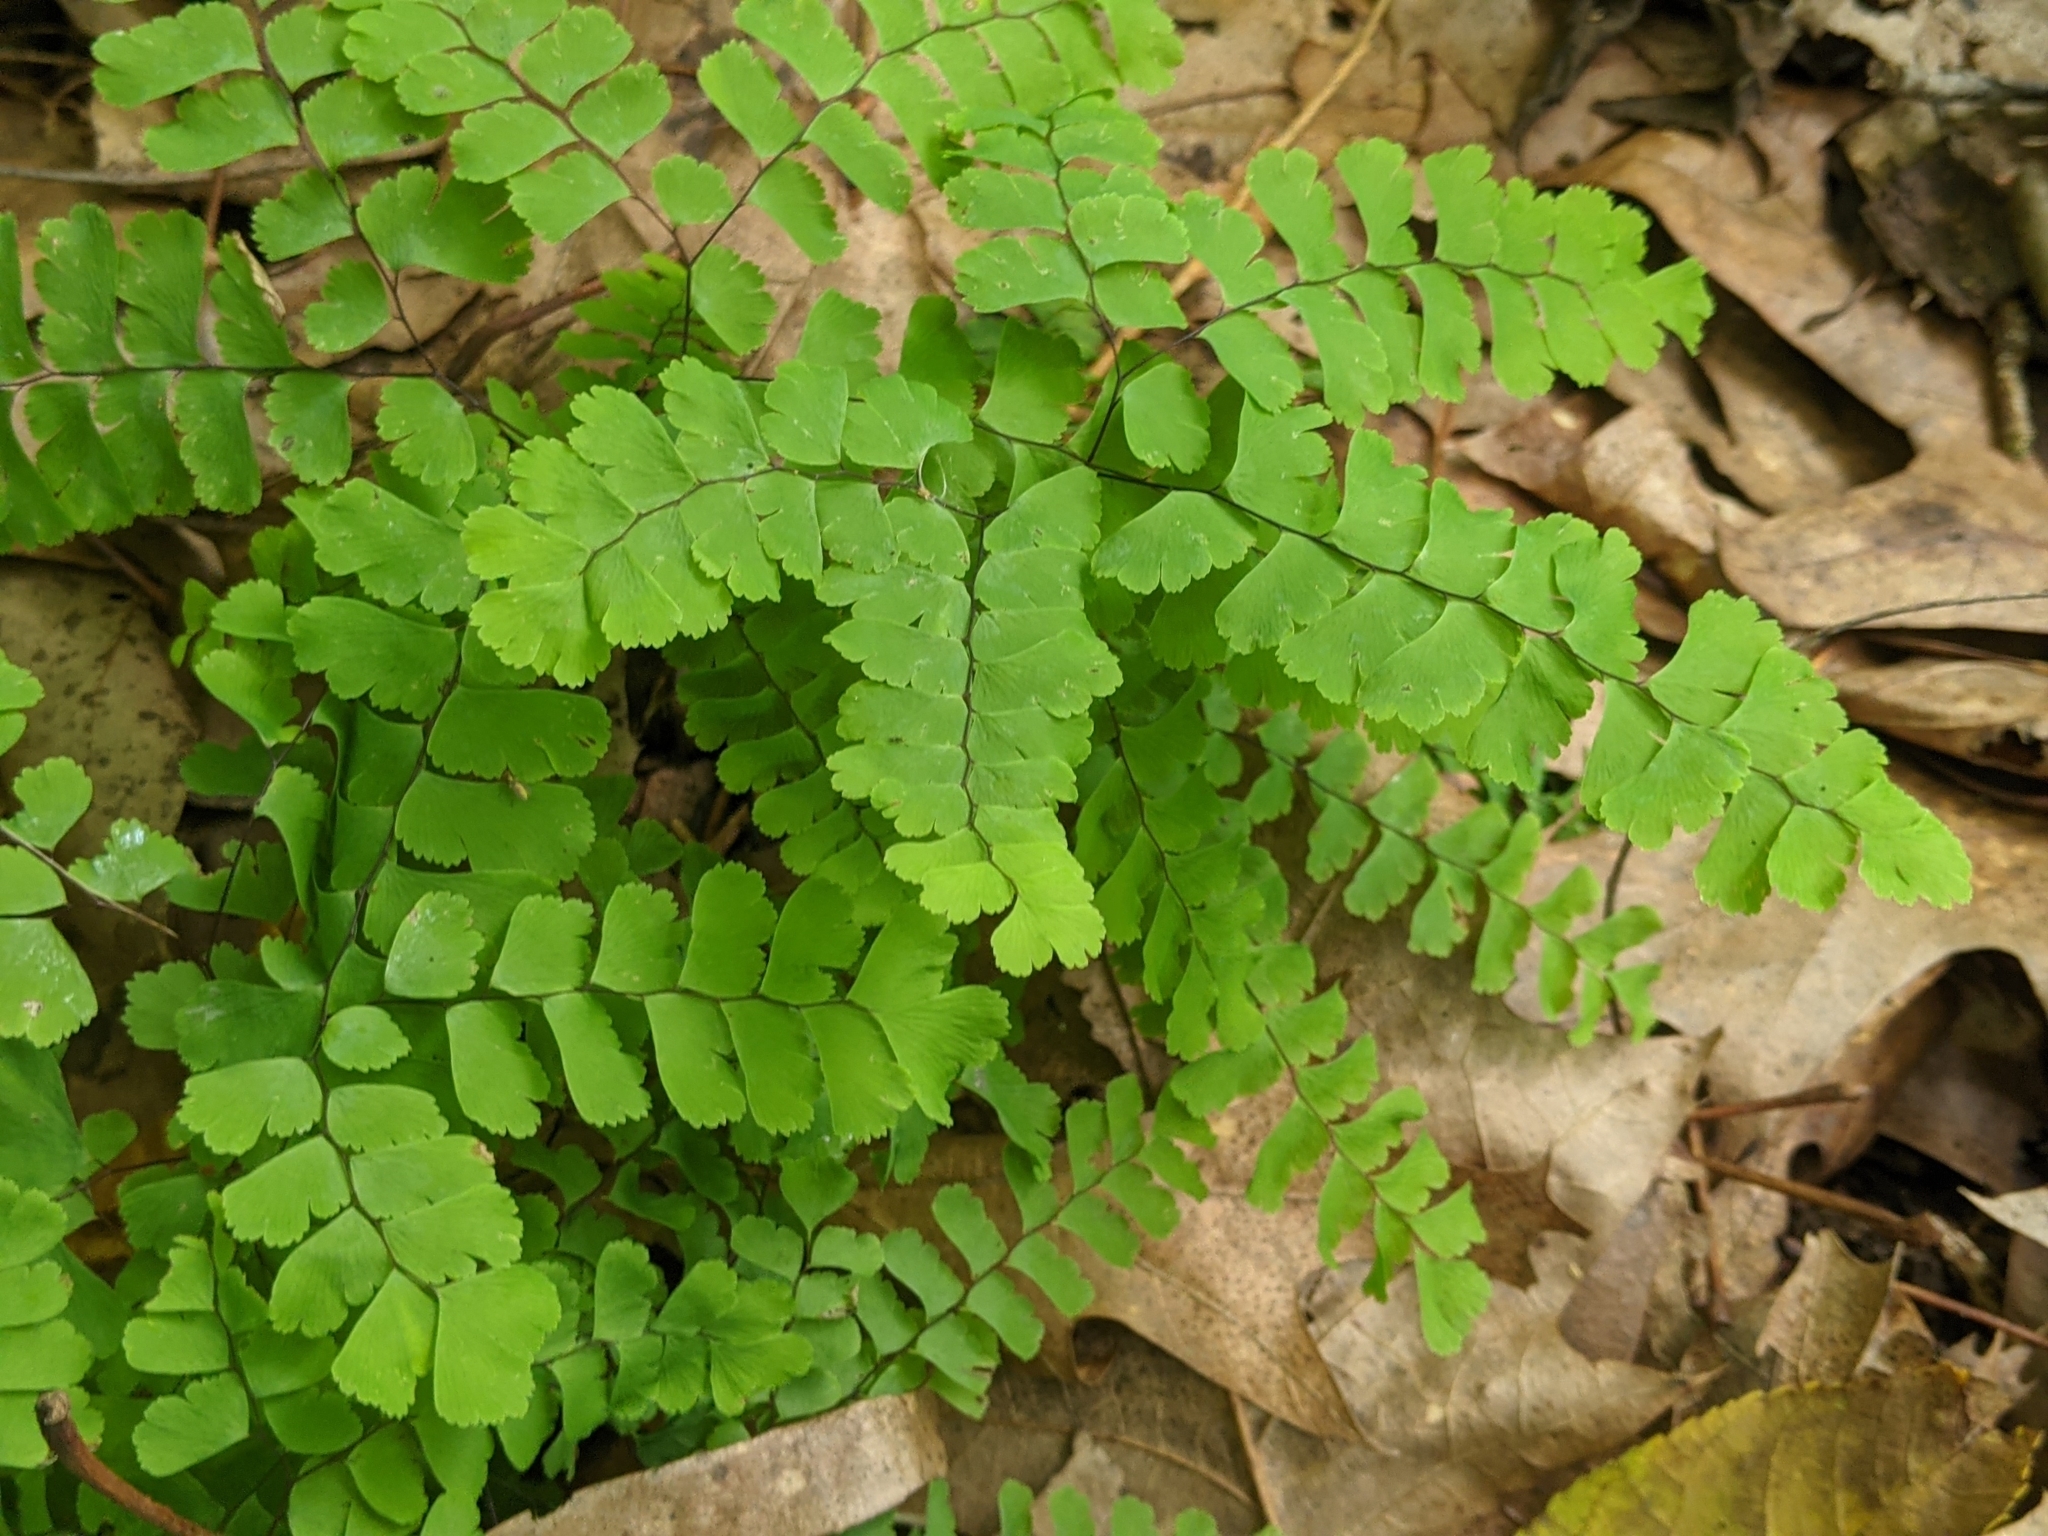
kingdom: Plantae
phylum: Tracheophyta
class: Polypodiopsida
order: Polypodiales
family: Pteridaceae
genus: Adiantum
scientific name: Adiantum pedatum
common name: Five-finger fern
